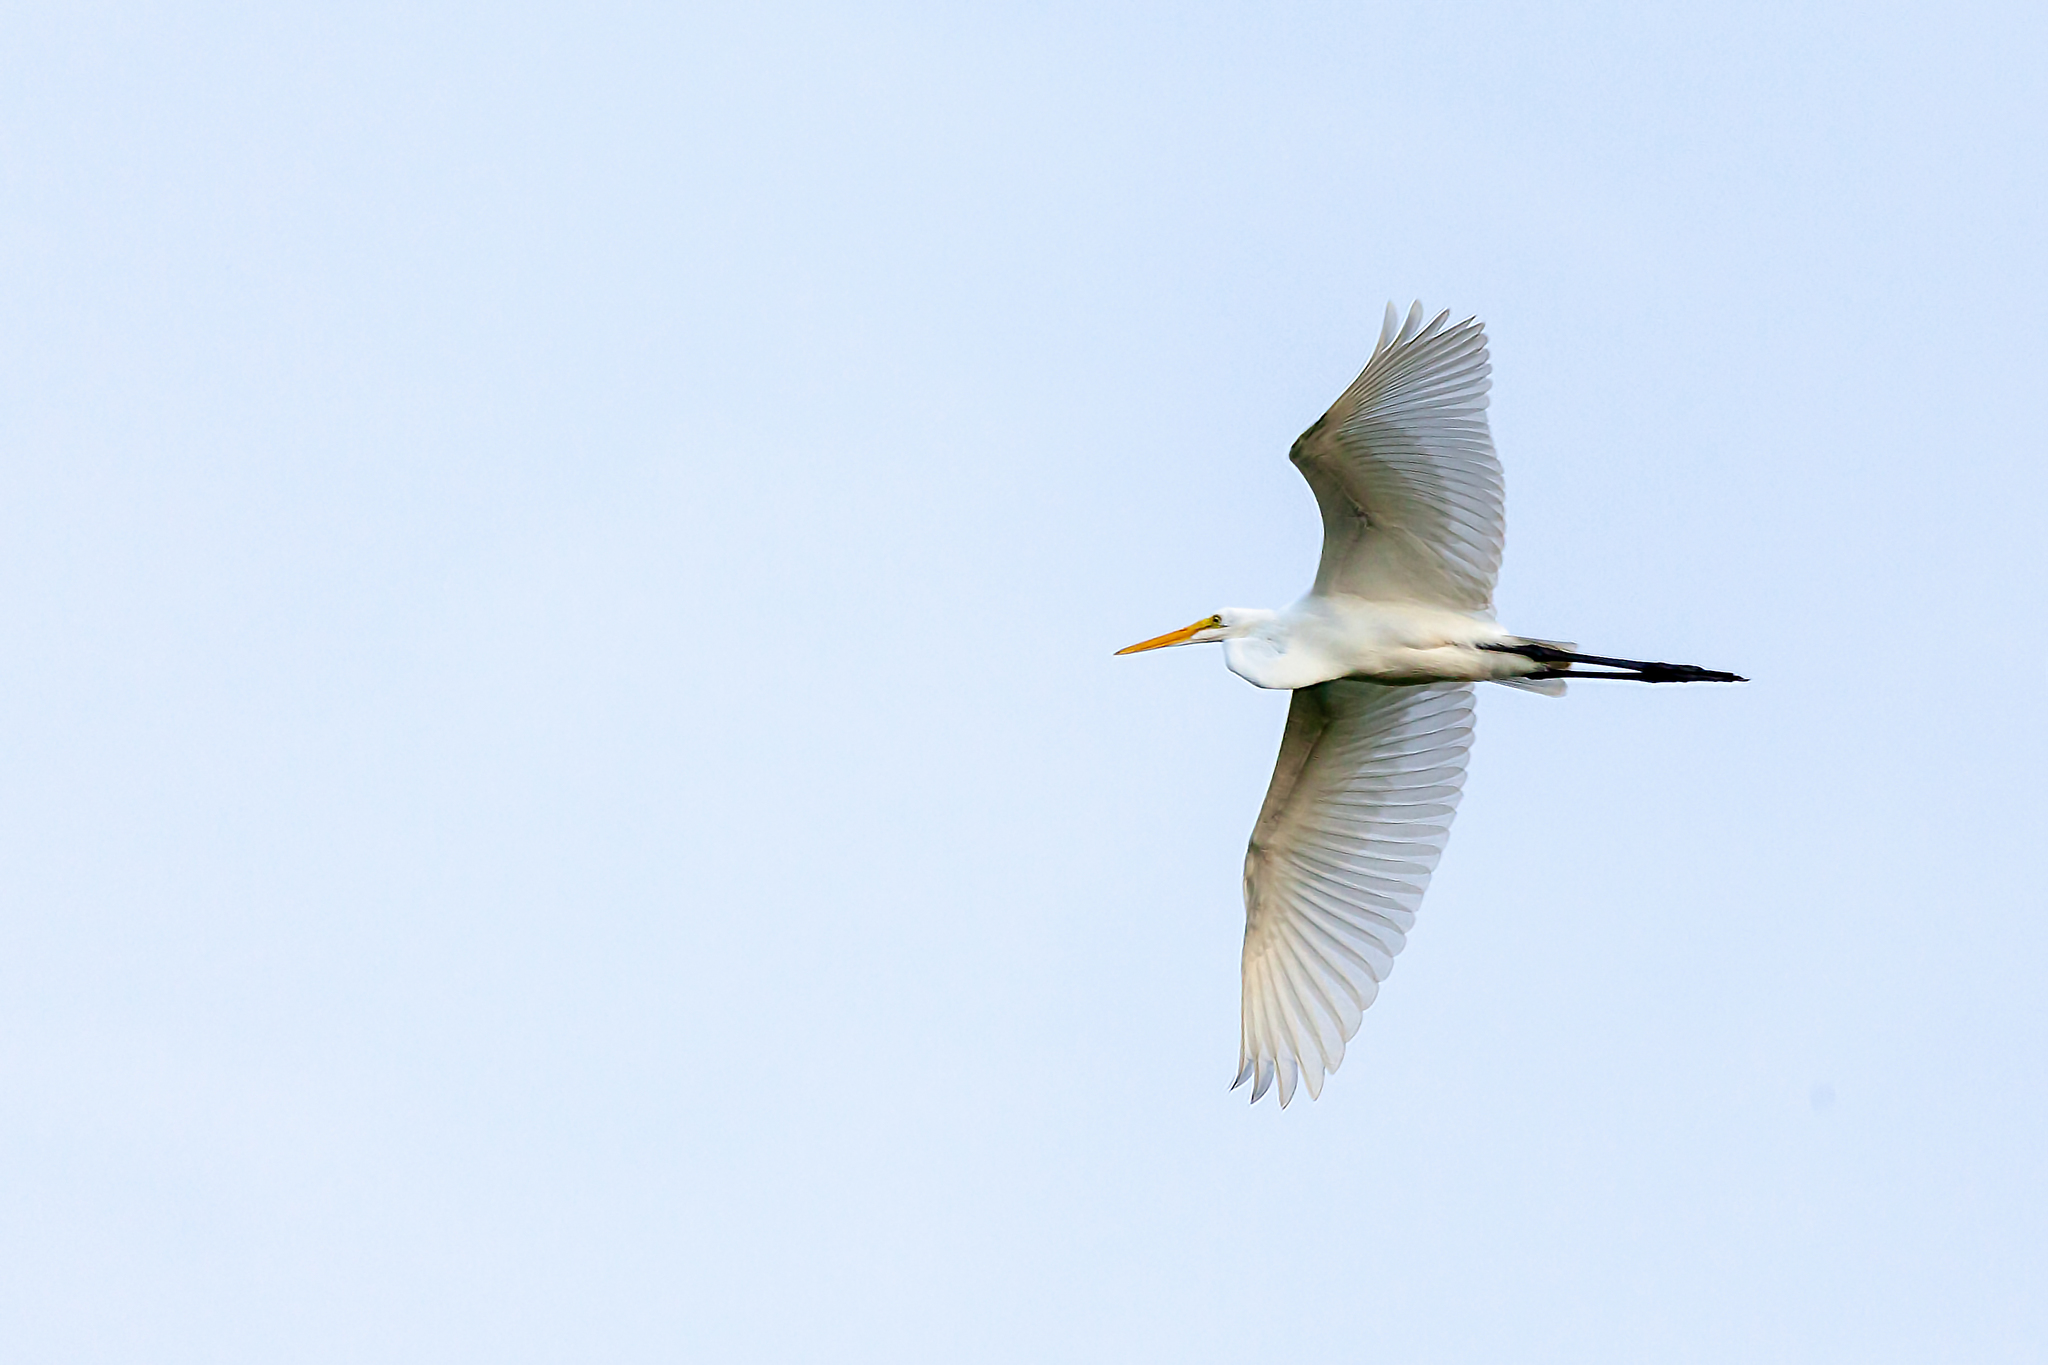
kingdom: Animalia
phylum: Chordata
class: Aves
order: Pelecaniformes
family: Ardeidae
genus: Ardea
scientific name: Ardea alba
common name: Great egret
